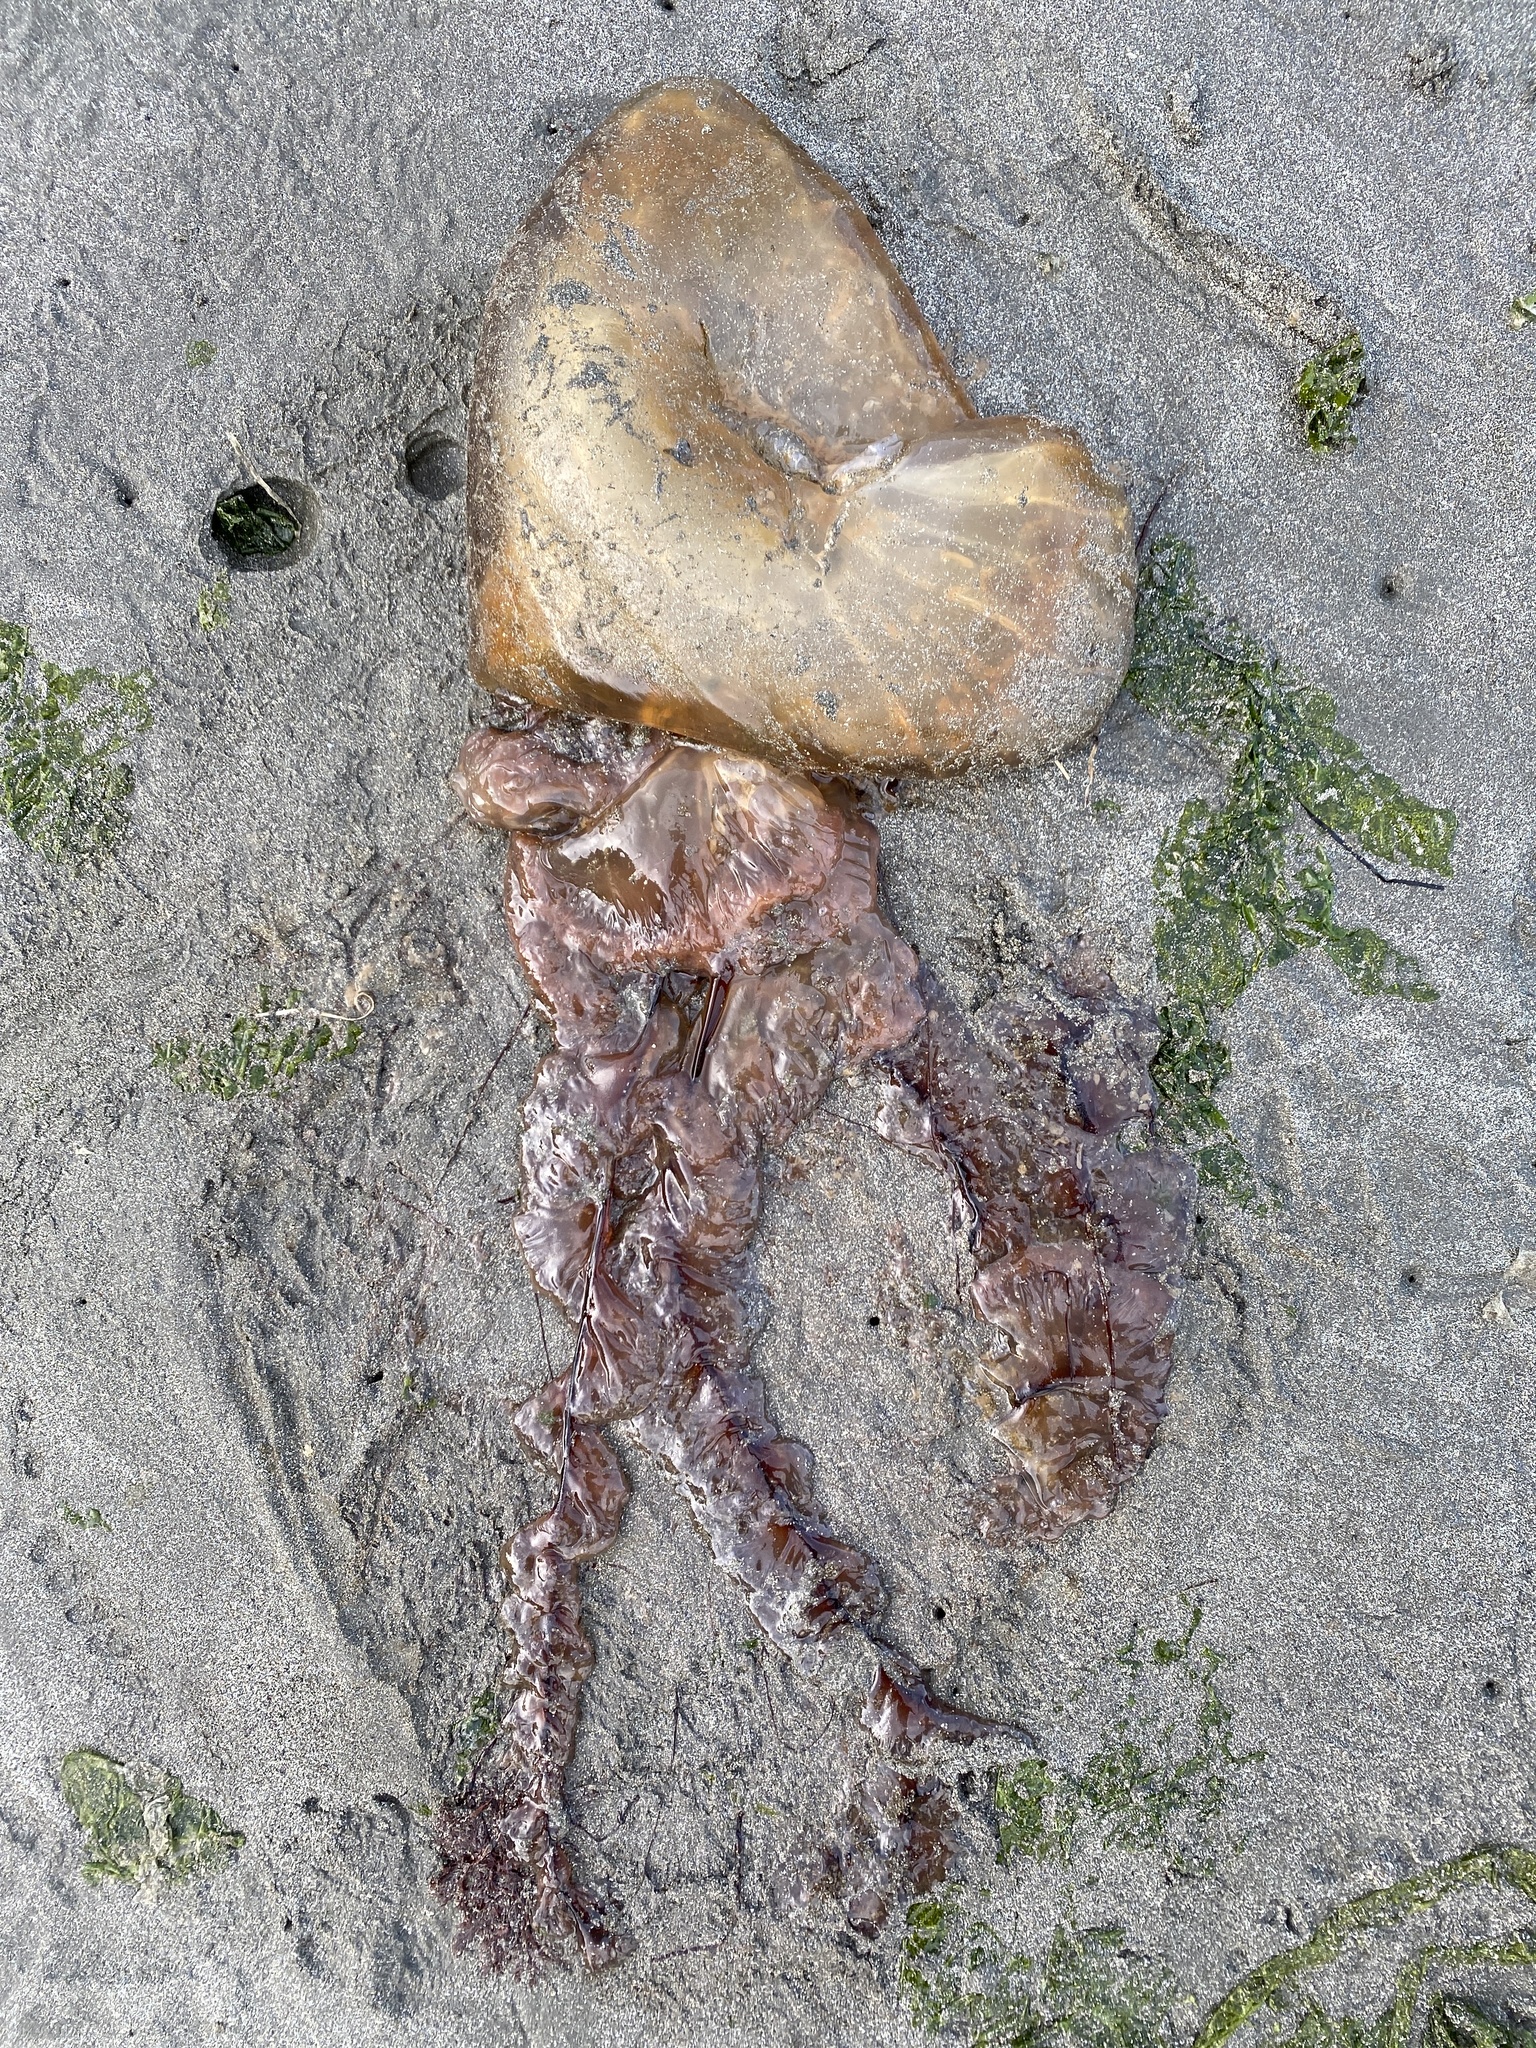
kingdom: Animalia
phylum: Cnidaria
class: Scyphozoa
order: Semaeostomeae
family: Pelagiidae
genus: Chrysaora
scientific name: Chrysaora fuscescens
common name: Sea nettle
